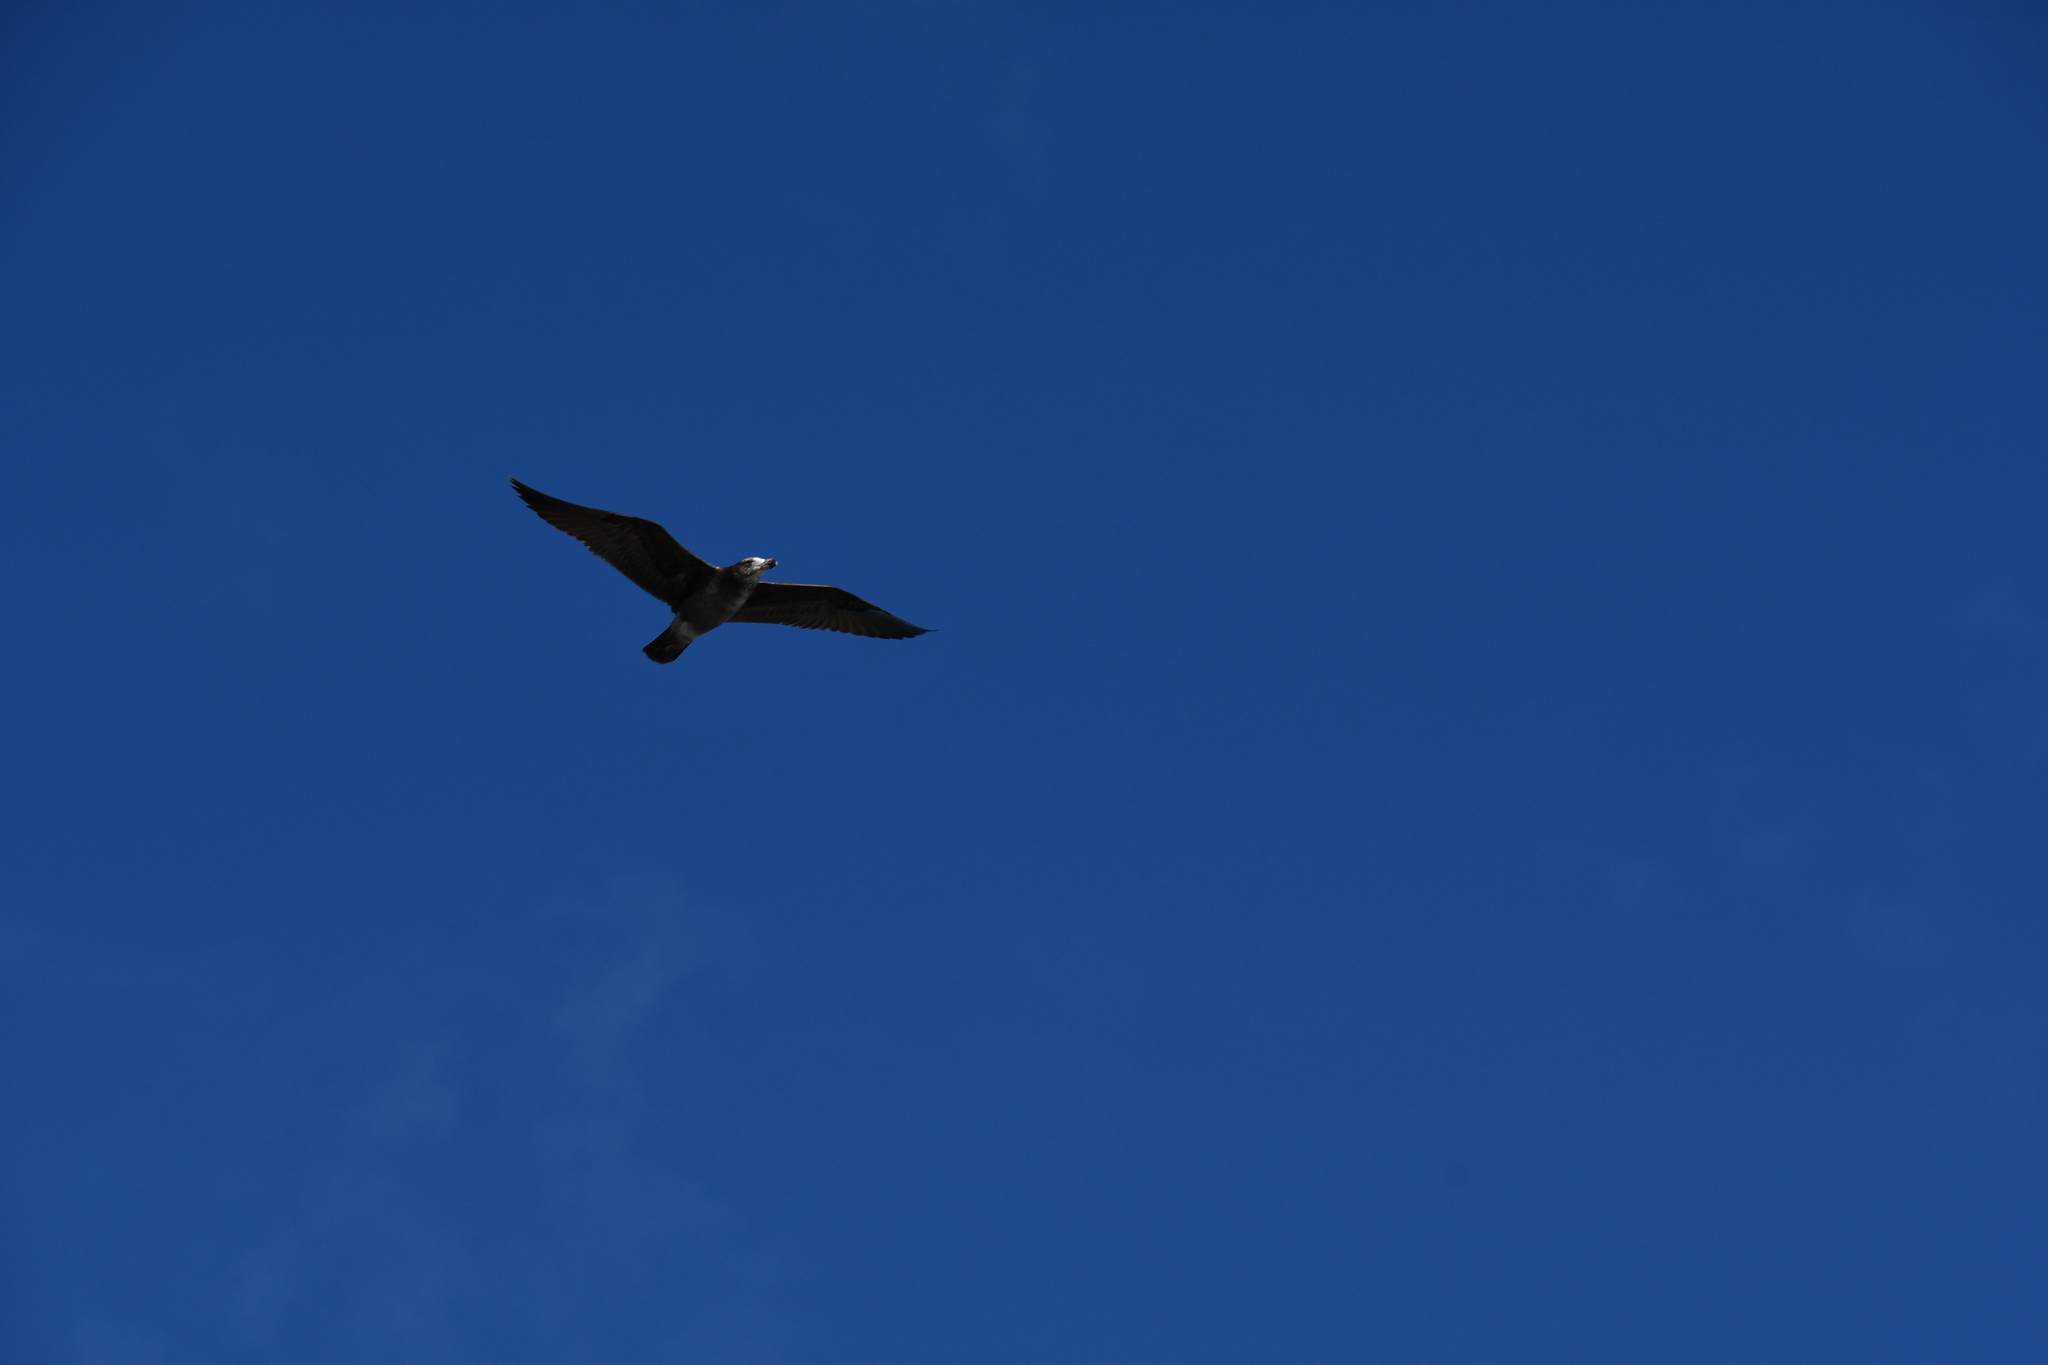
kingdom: Animalia
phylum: Chordata
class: Aves
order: Charadriiformes
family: Laridae
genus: Larus
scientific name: Larus pacificus
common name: Pacific gull
